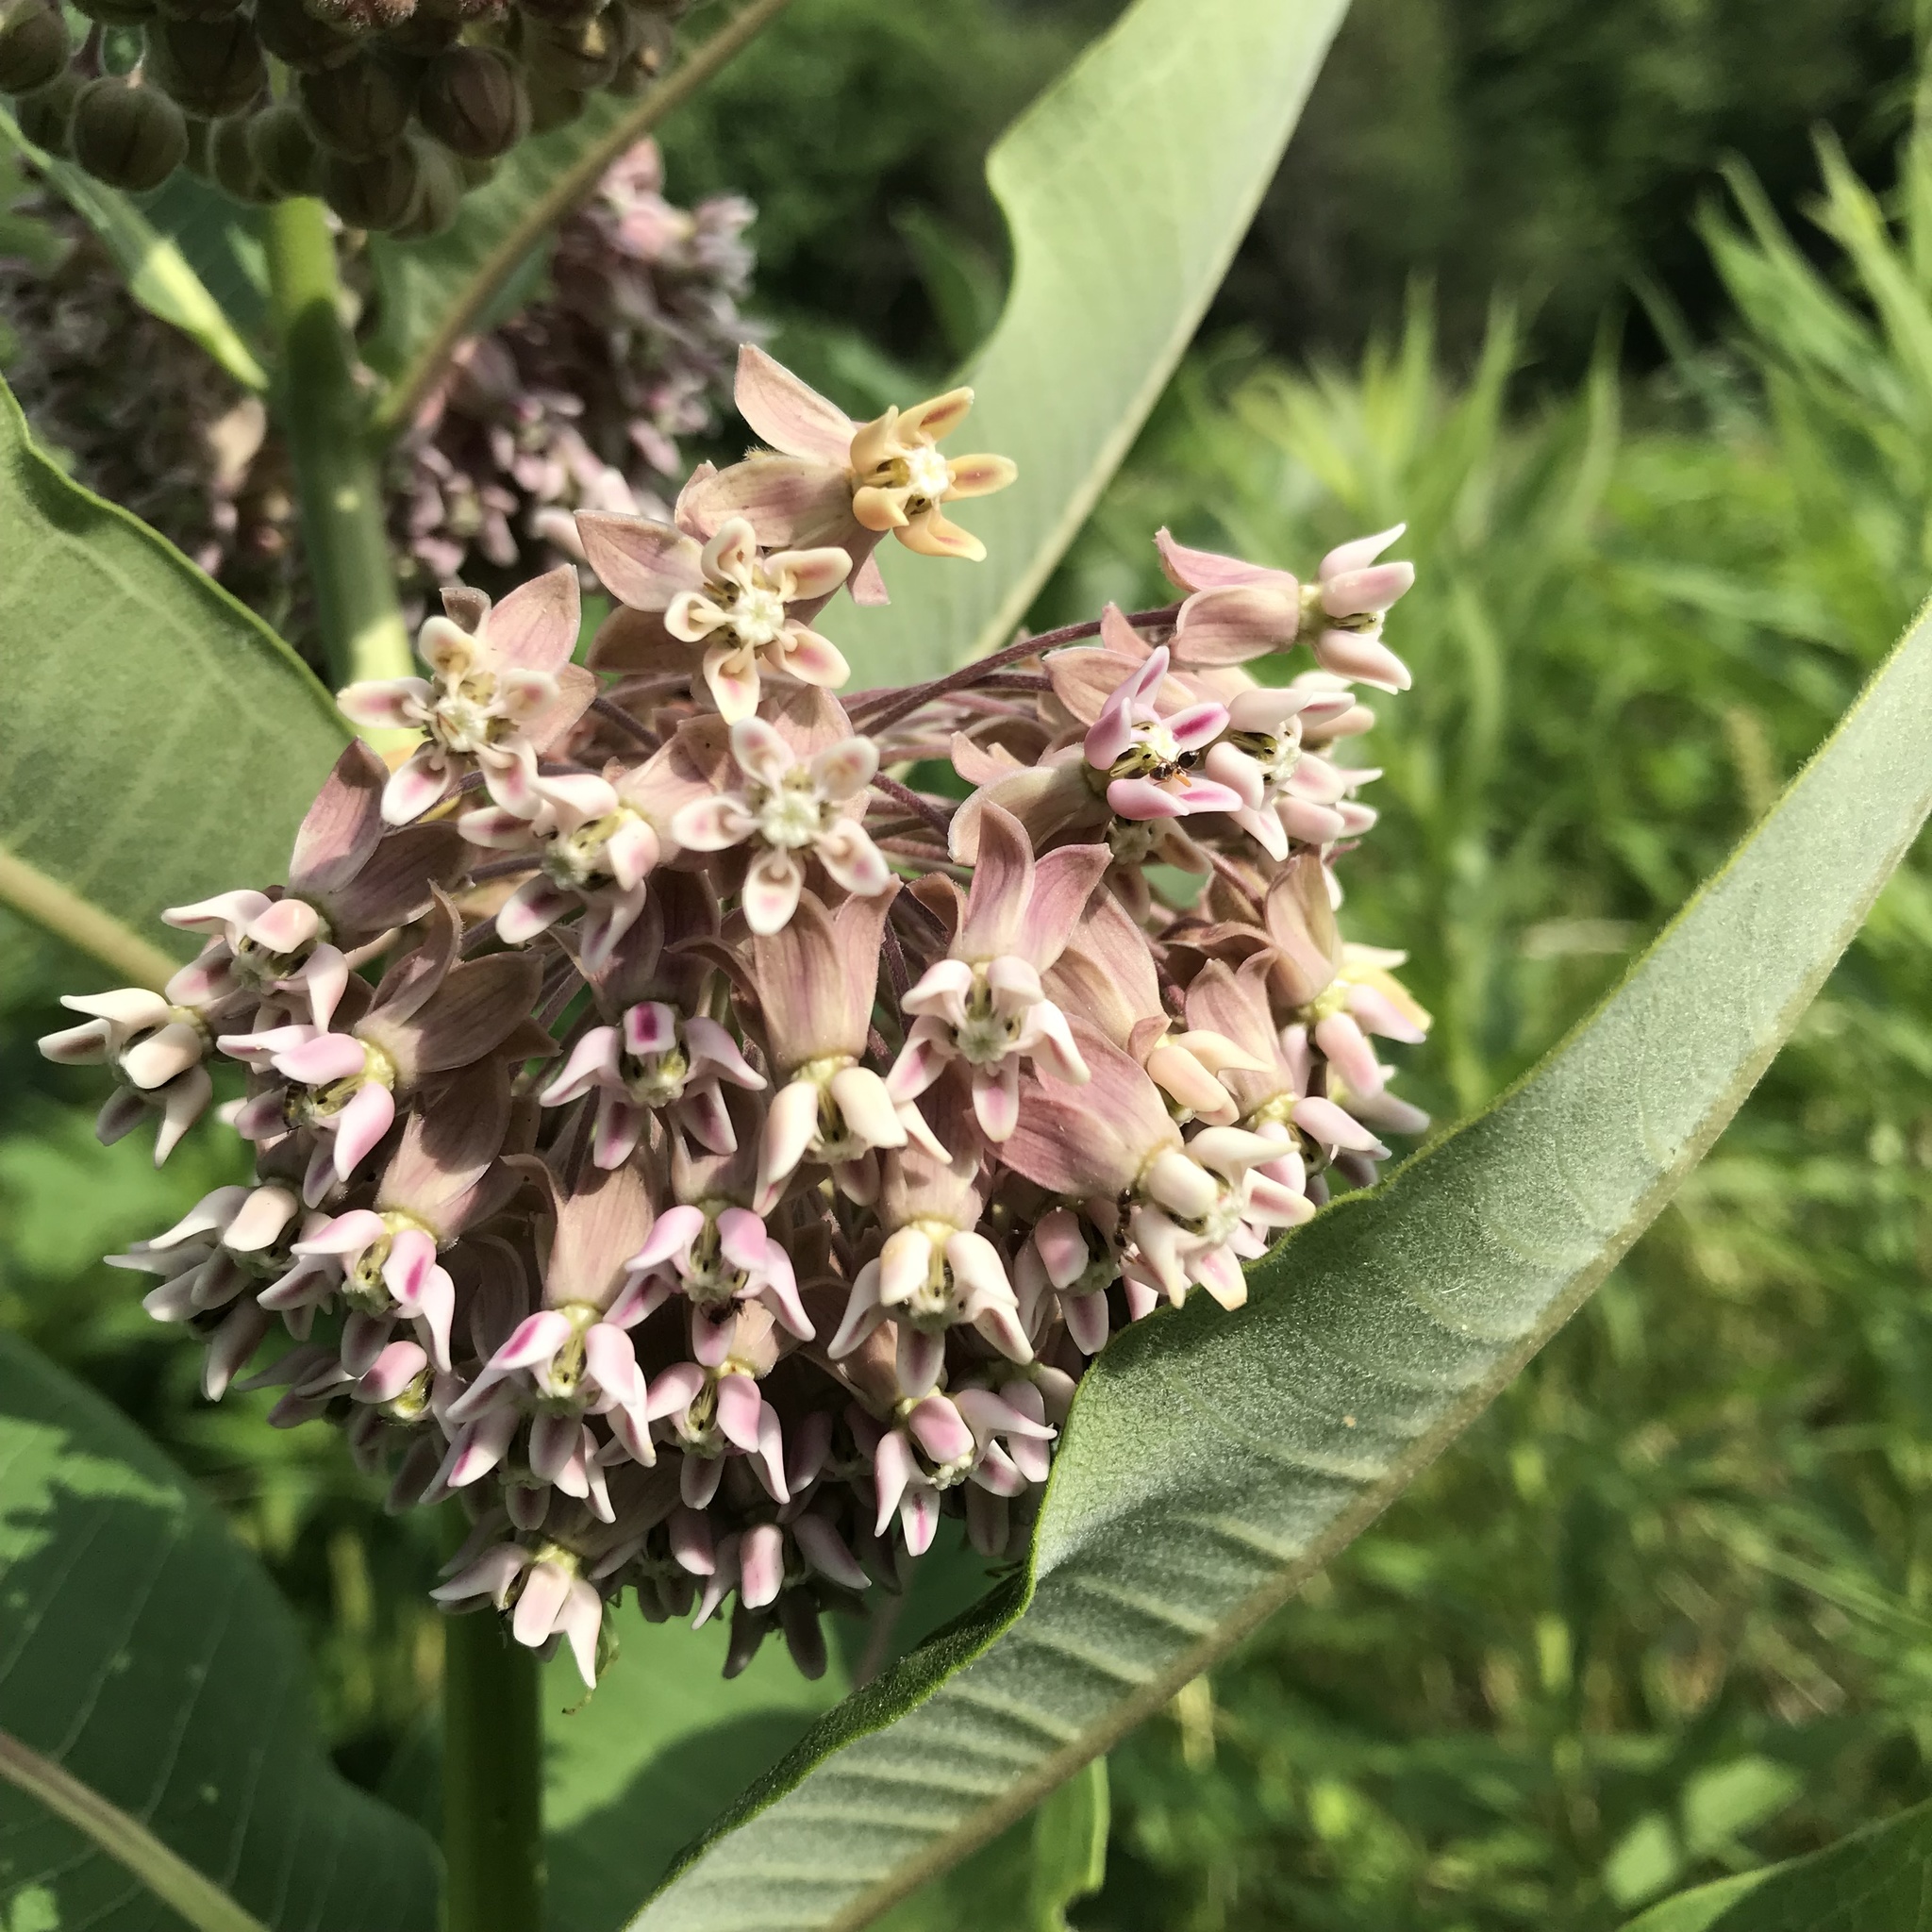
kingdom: Plantae
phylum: Tracheophyta
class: Magnoliopsida
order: Gentianales
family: Apocynaceae
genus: Asclepias
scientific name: Asclepias syriaca
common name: Common milkweed
